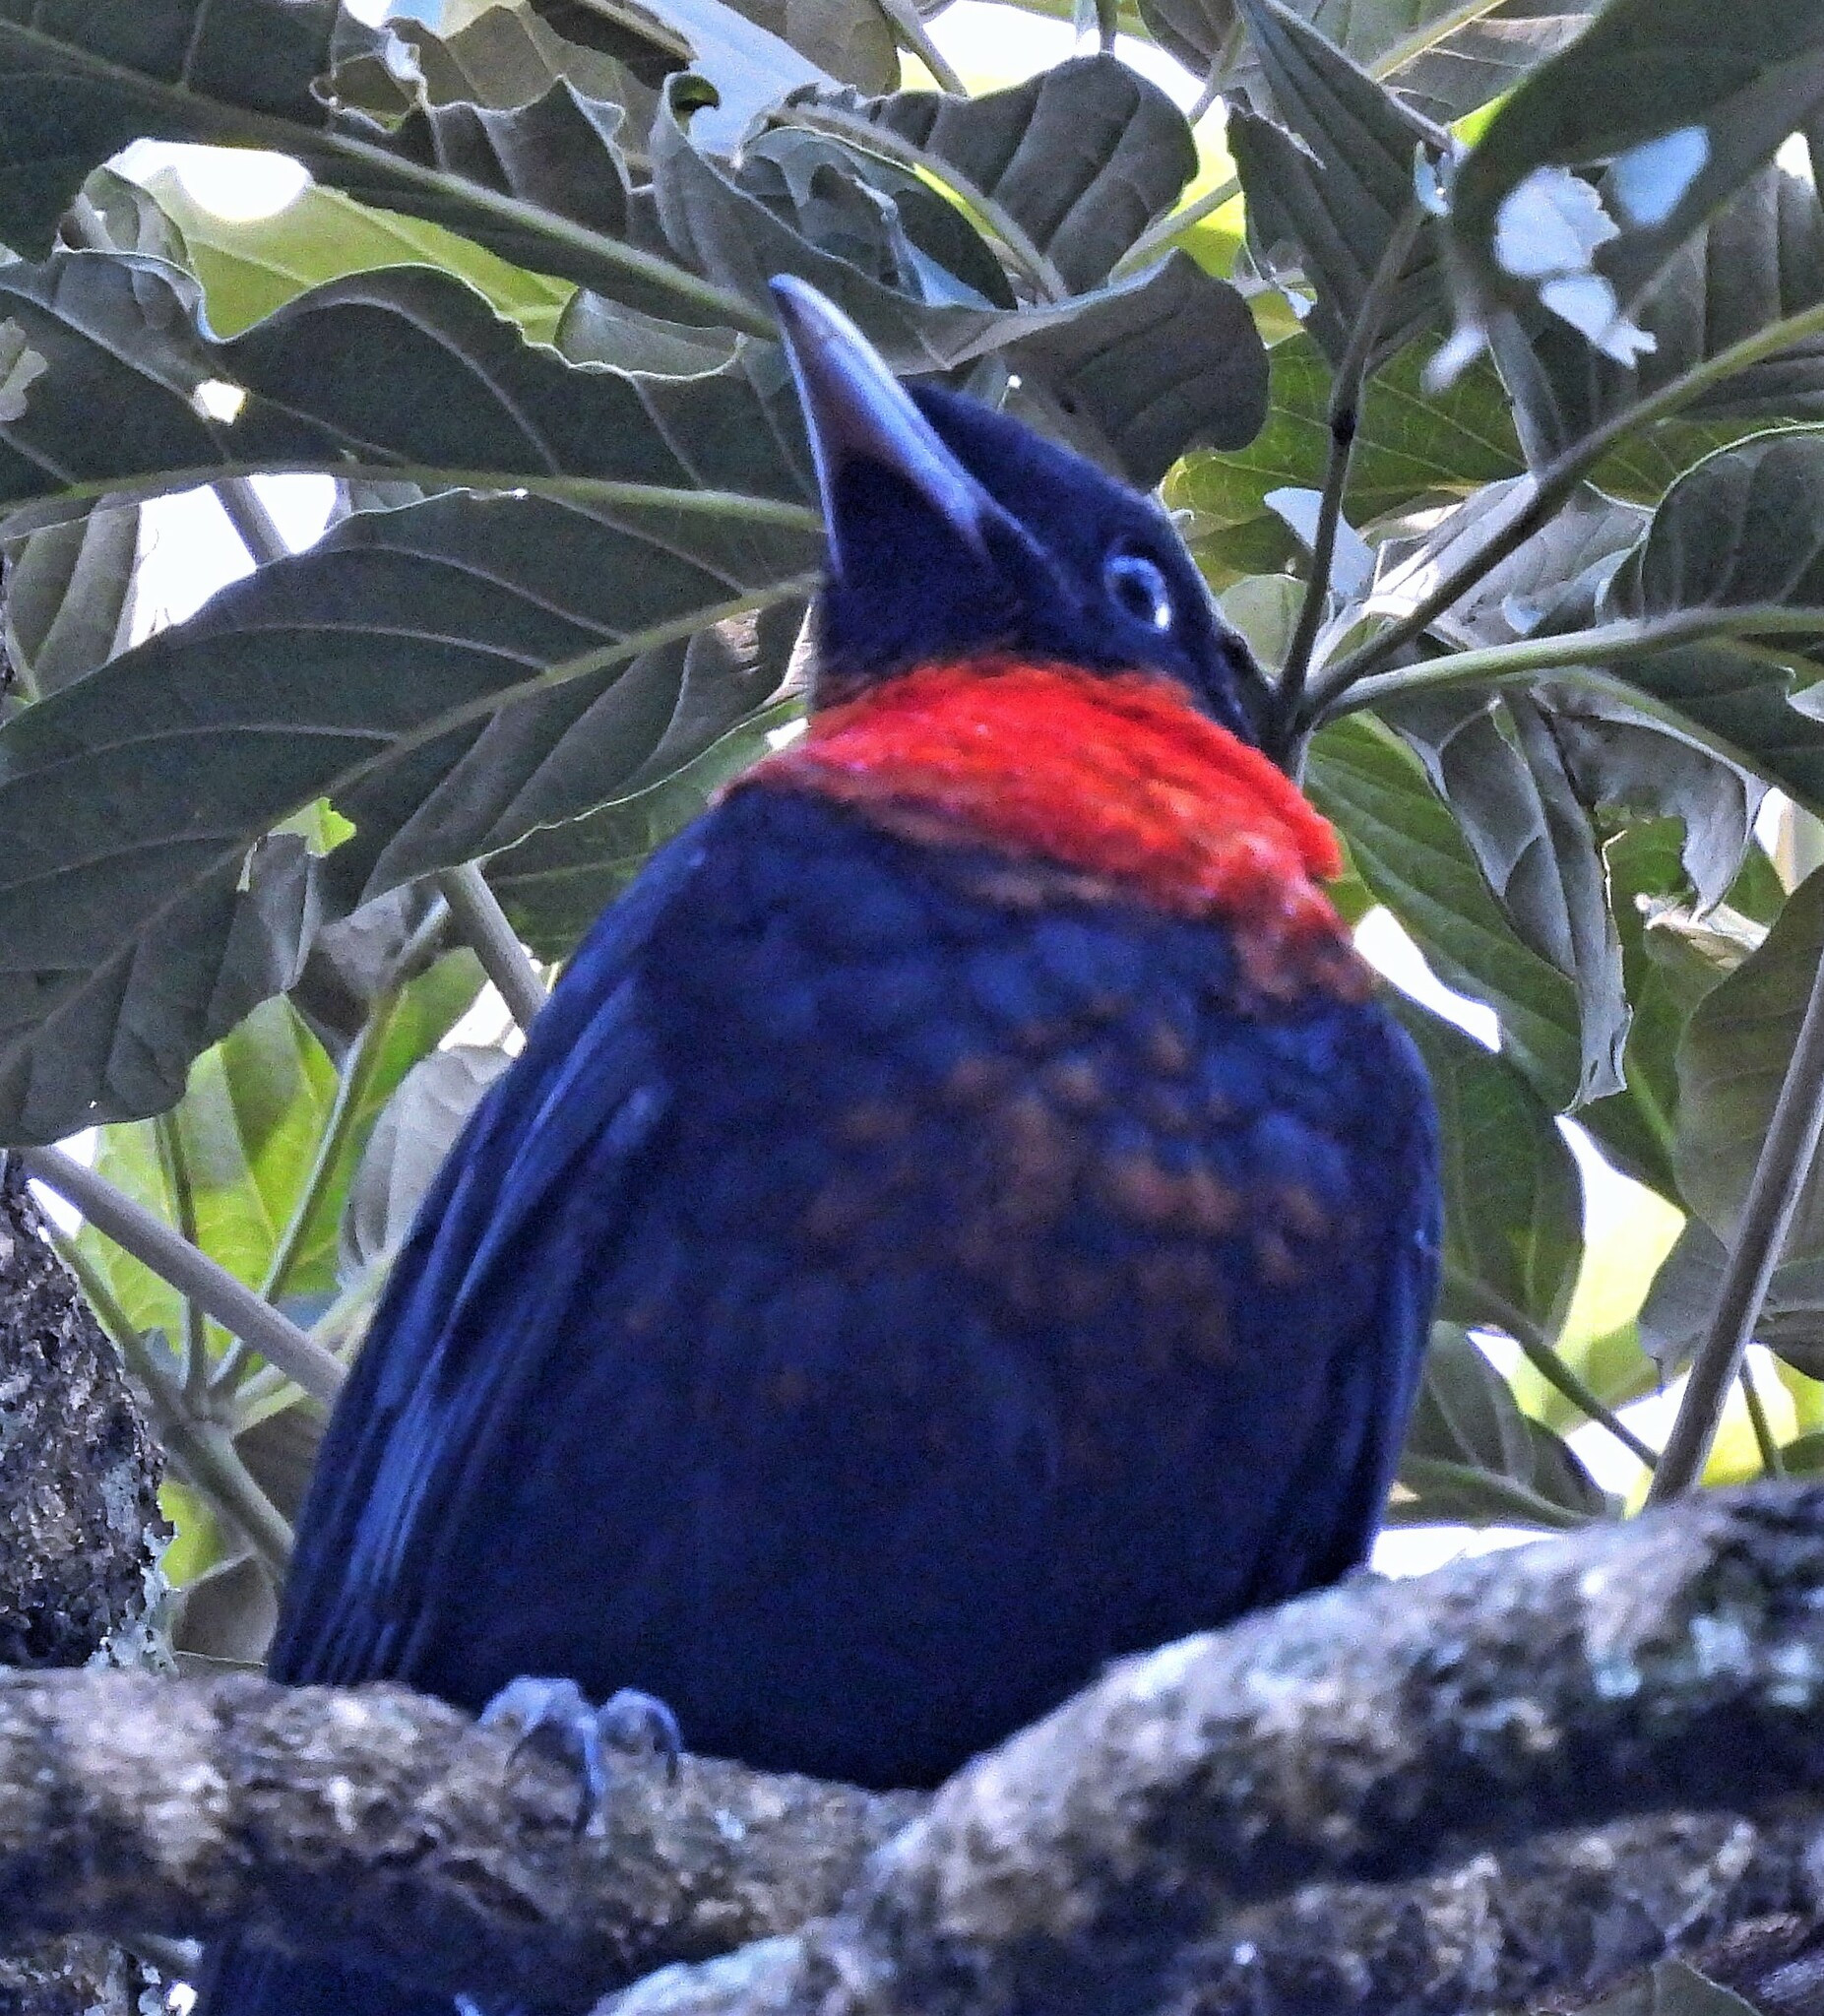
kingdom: Animalia
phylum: Chordata
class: Aves
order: Passeriformes
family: Cotingidae
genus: Pyroderus
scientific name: Pyroderus scutatus
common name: Red-ruffed fruitcrow
